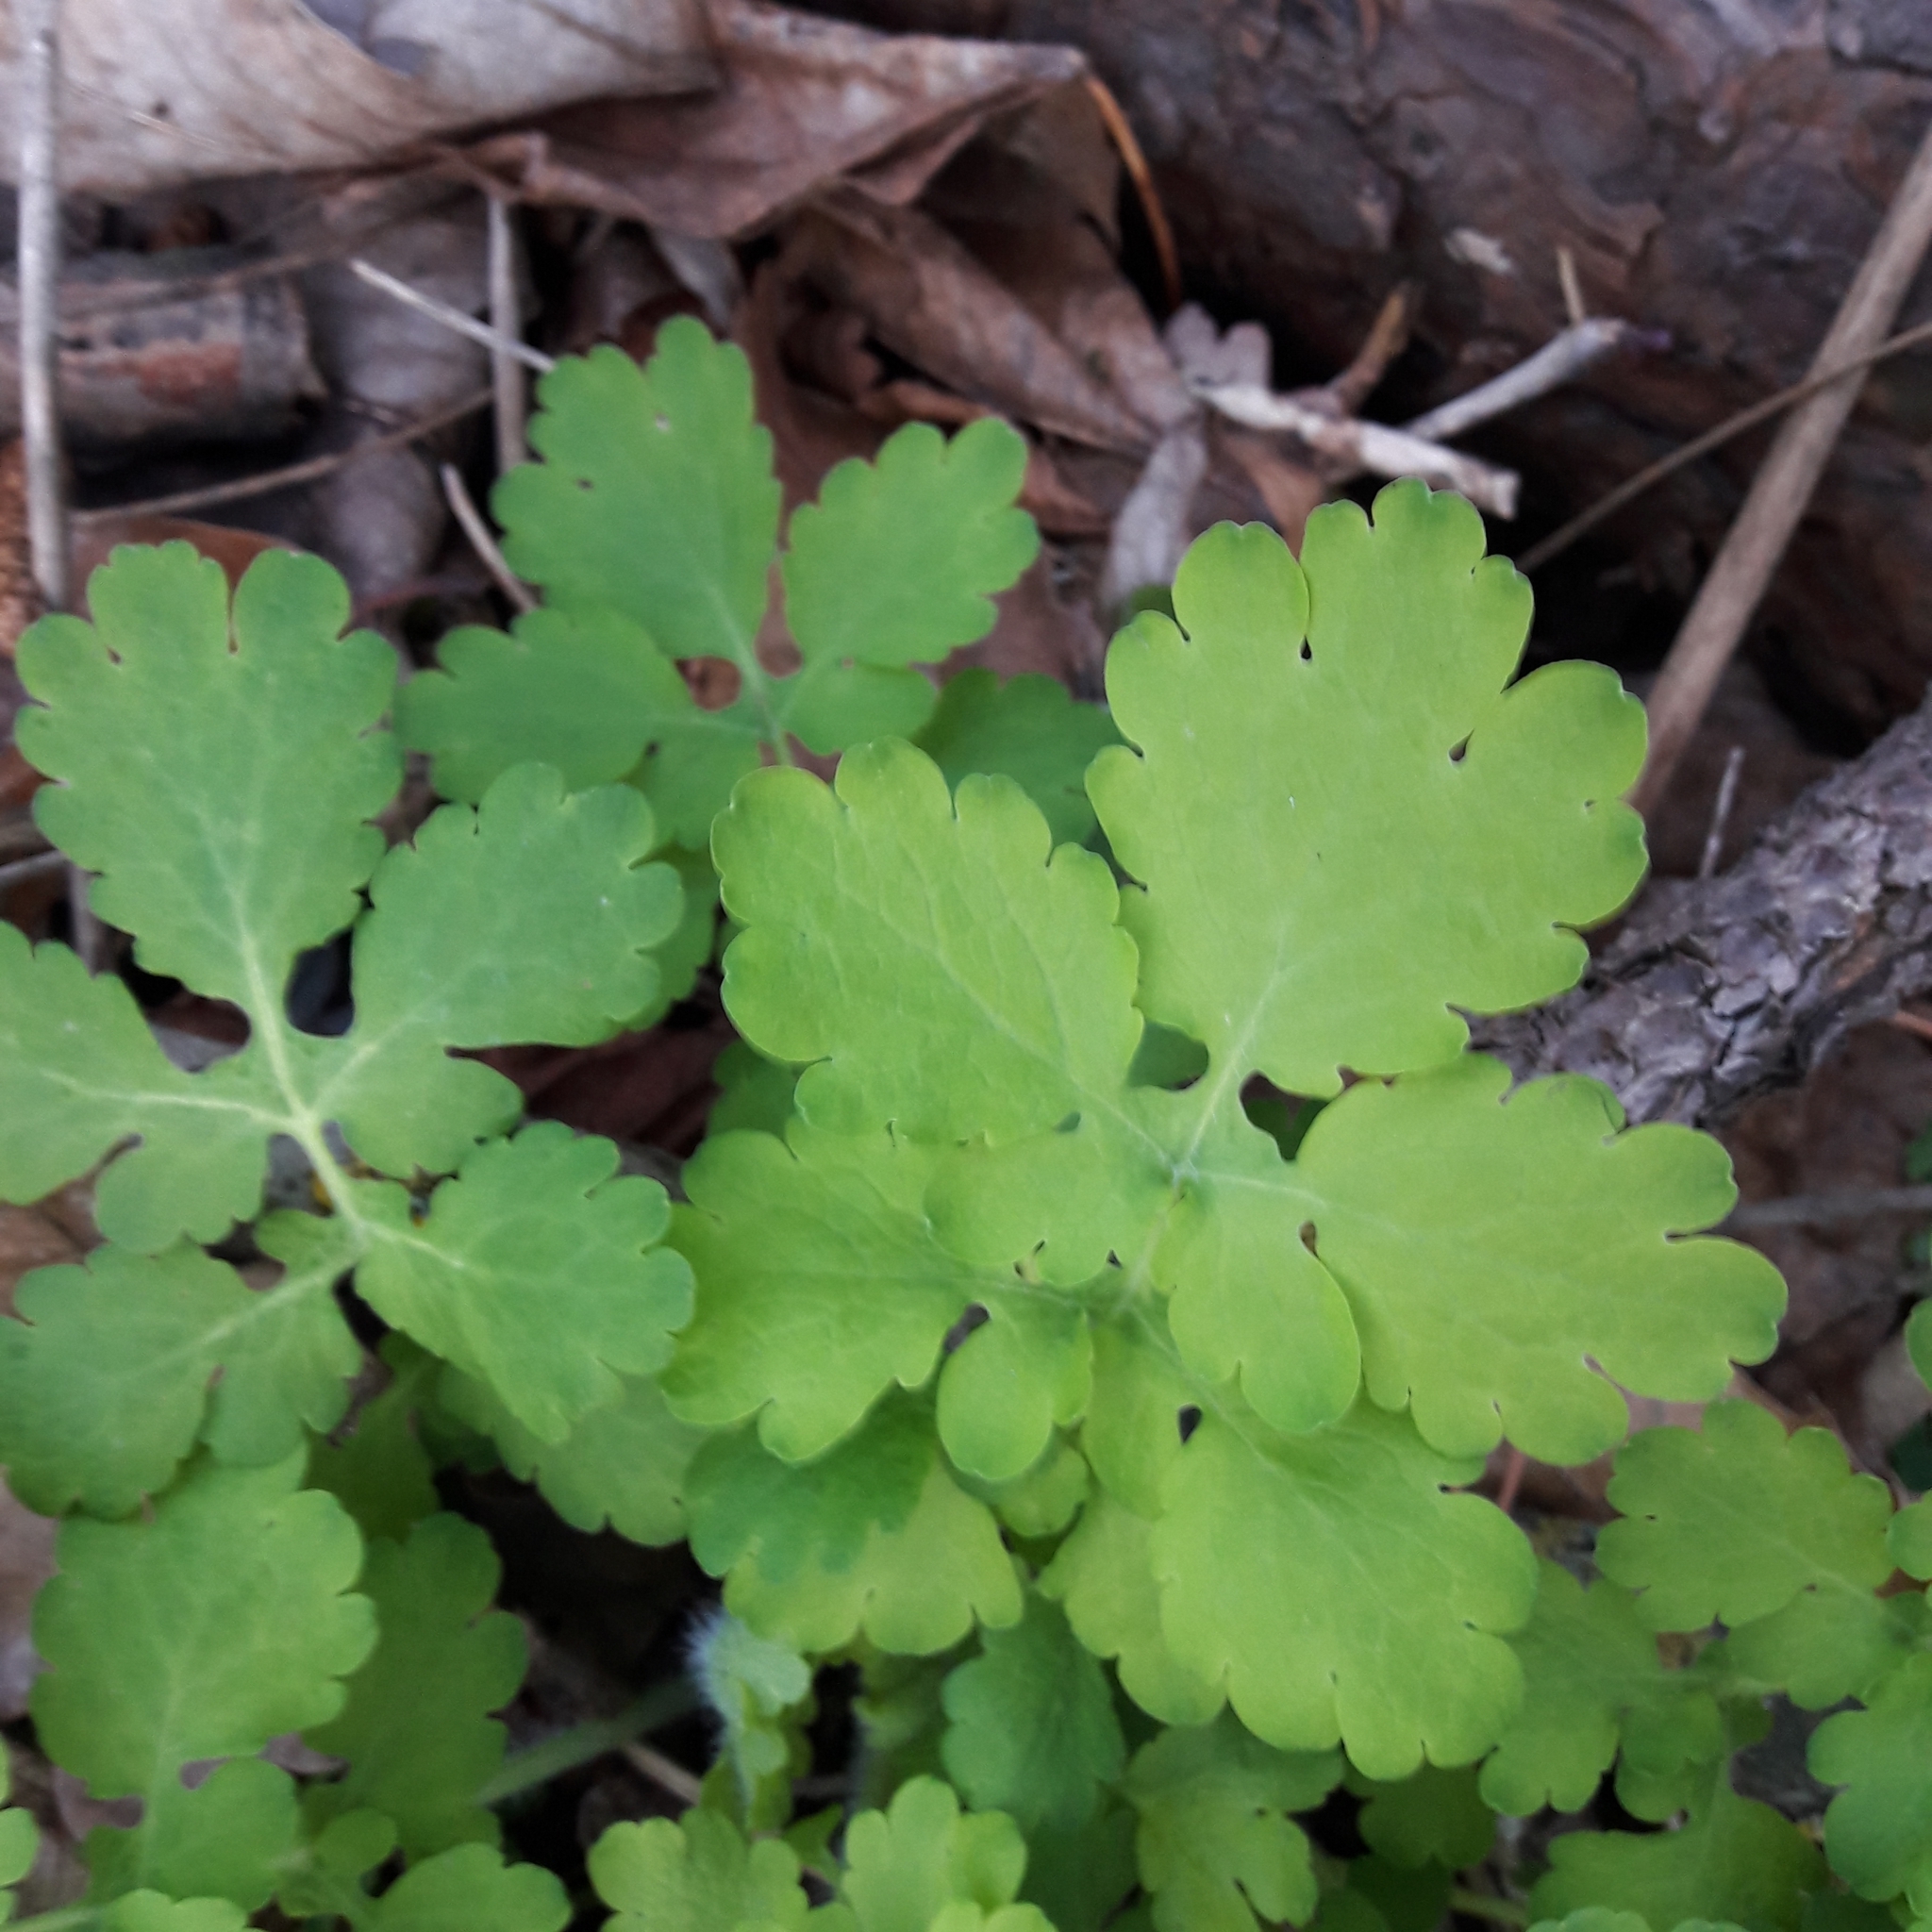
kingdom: Plantae
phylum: Tracheophyta
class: Magnoliopsida
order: Ranunculales
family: Papaveraceae
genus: Chelidonium
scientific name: Chelidonium majus
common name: Greater celandine
